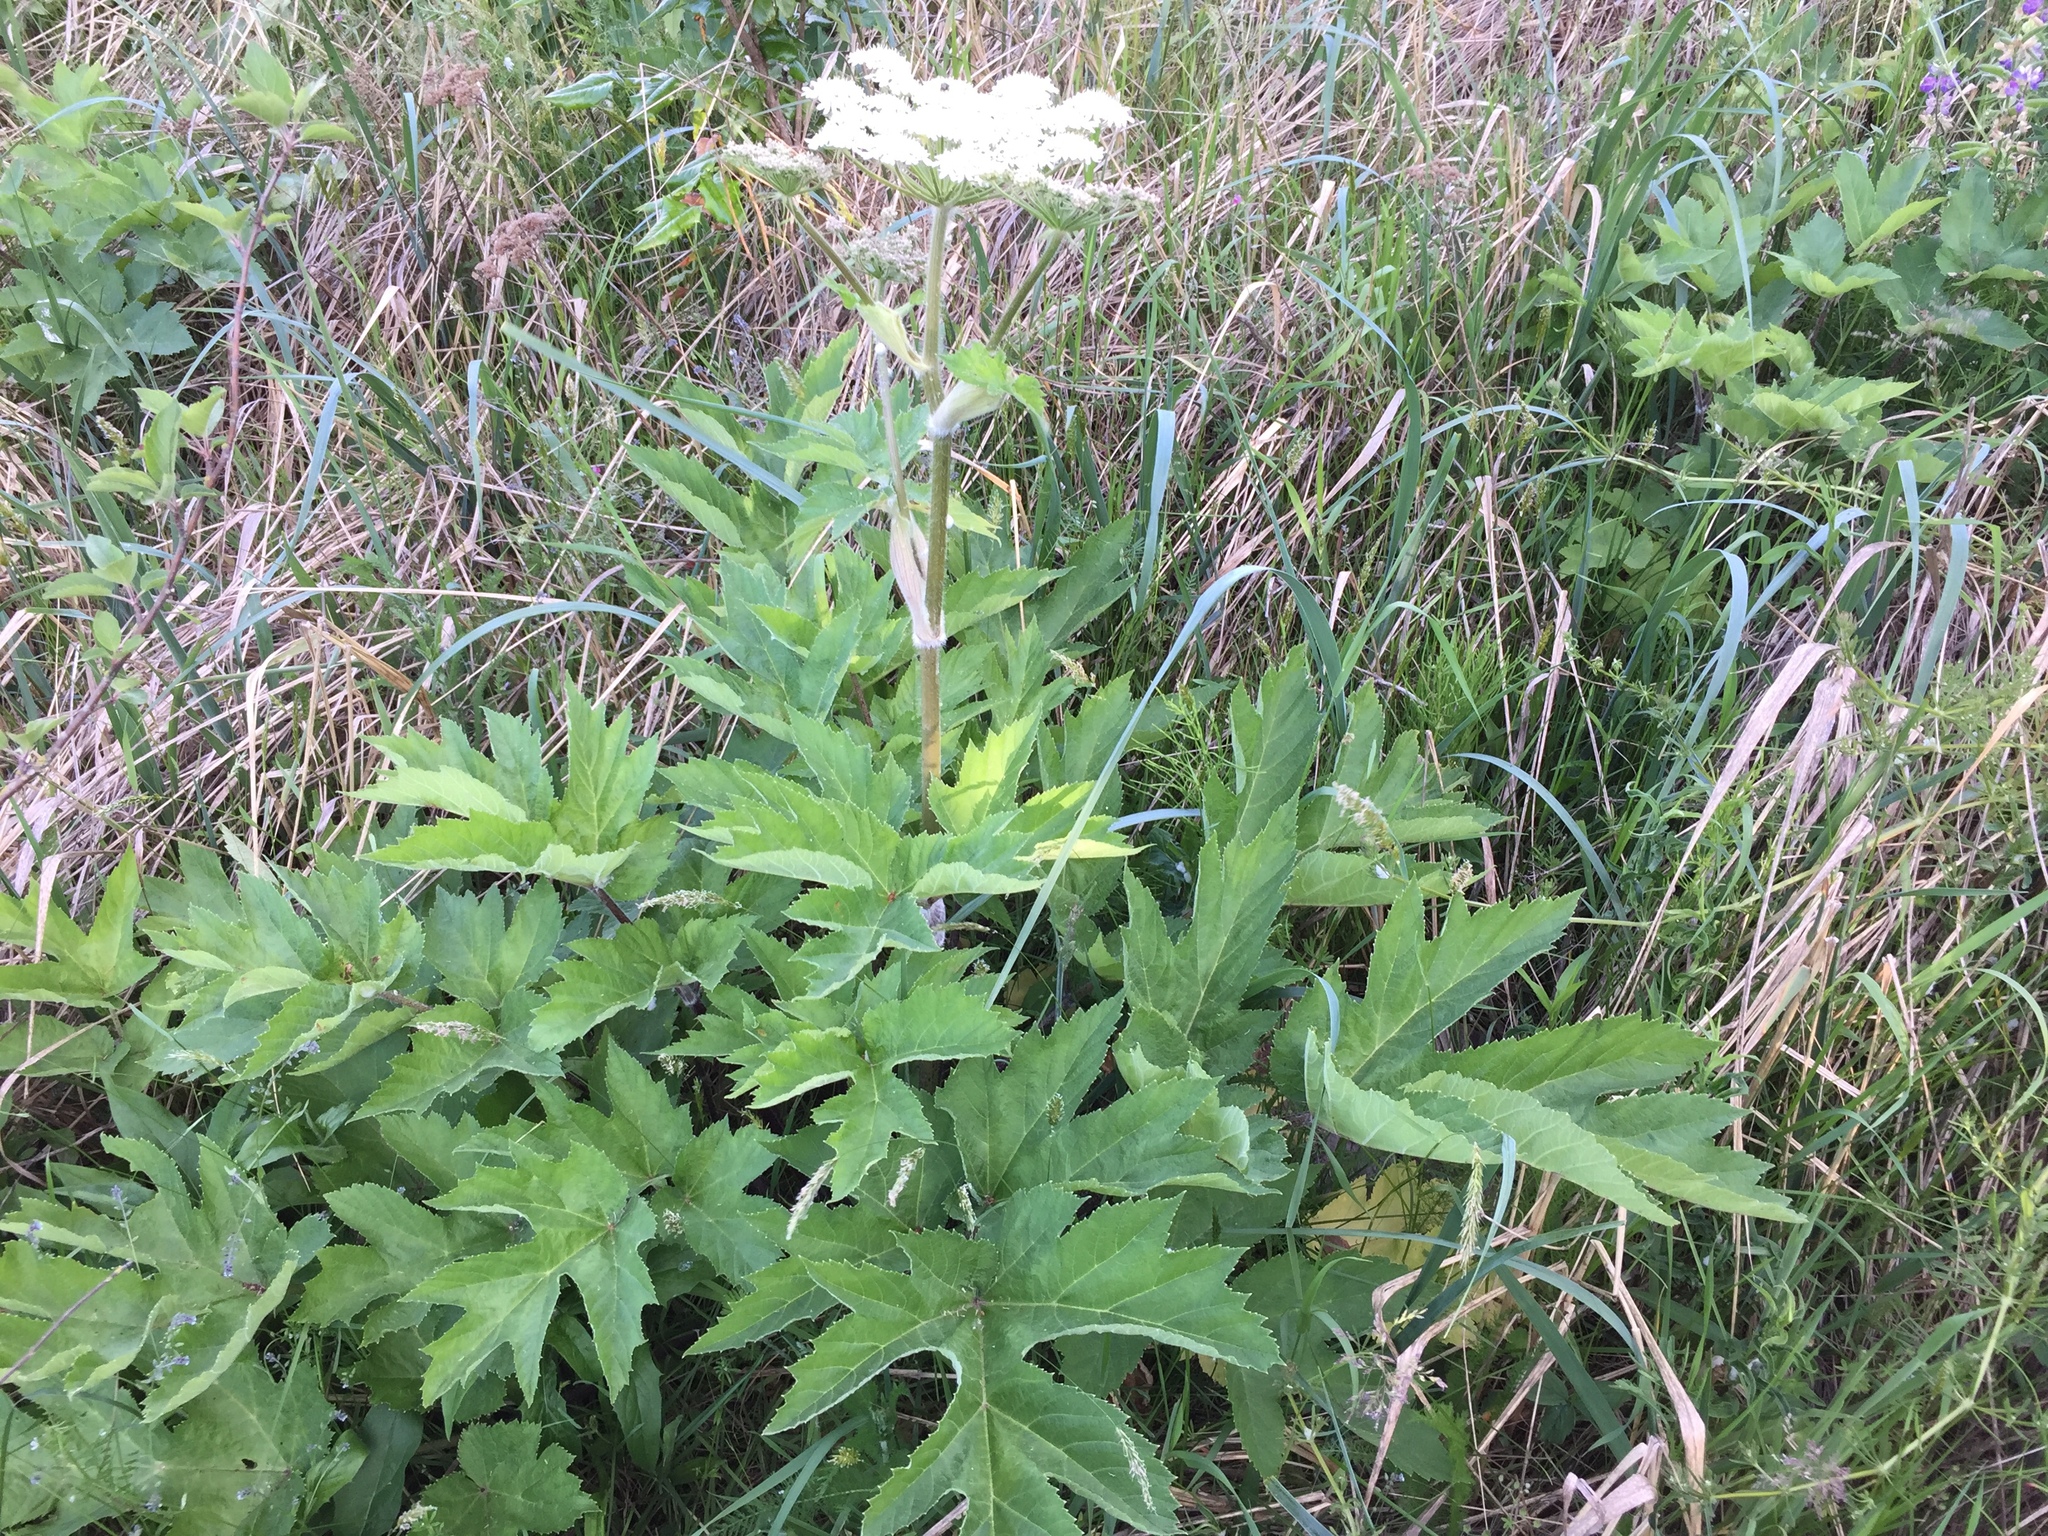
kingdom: Plantae
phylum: Tracheophyta
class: Magnoliopsida
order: Apiales
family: Apiaceae
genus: Heracleum
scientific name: Heracleum maximum
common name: American cow parsnip
